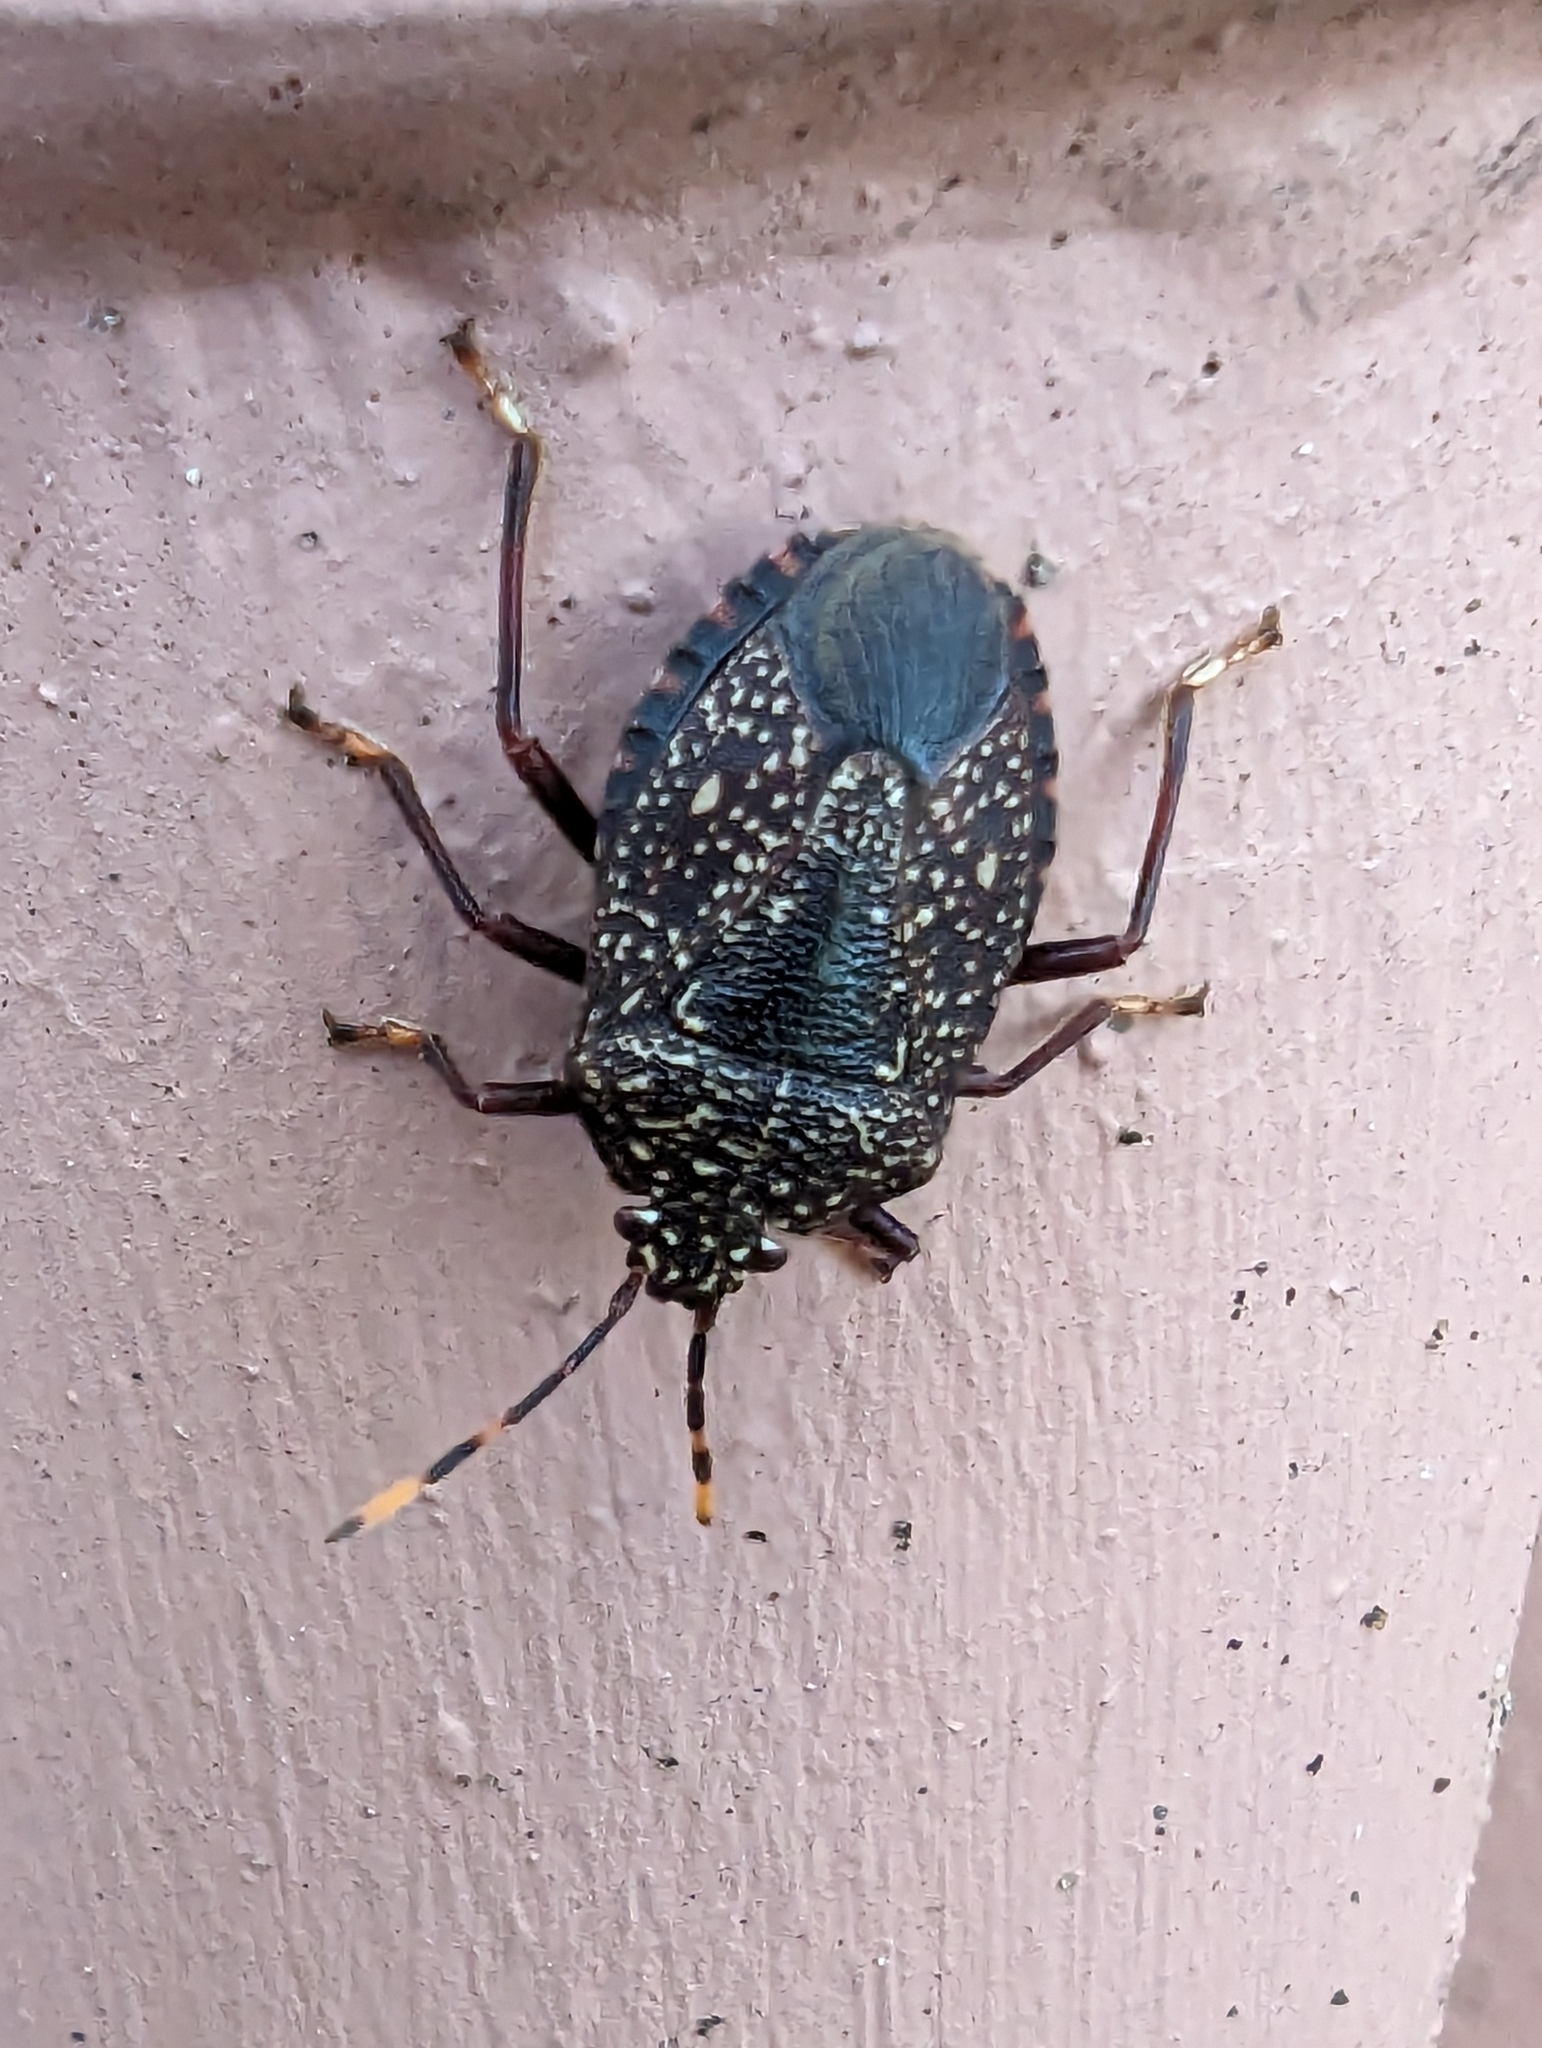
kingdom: Animalia
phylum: Arthropoda
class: Insecta
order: Hemiptera
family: Pentatomidae
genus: Notius
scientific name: Notius
